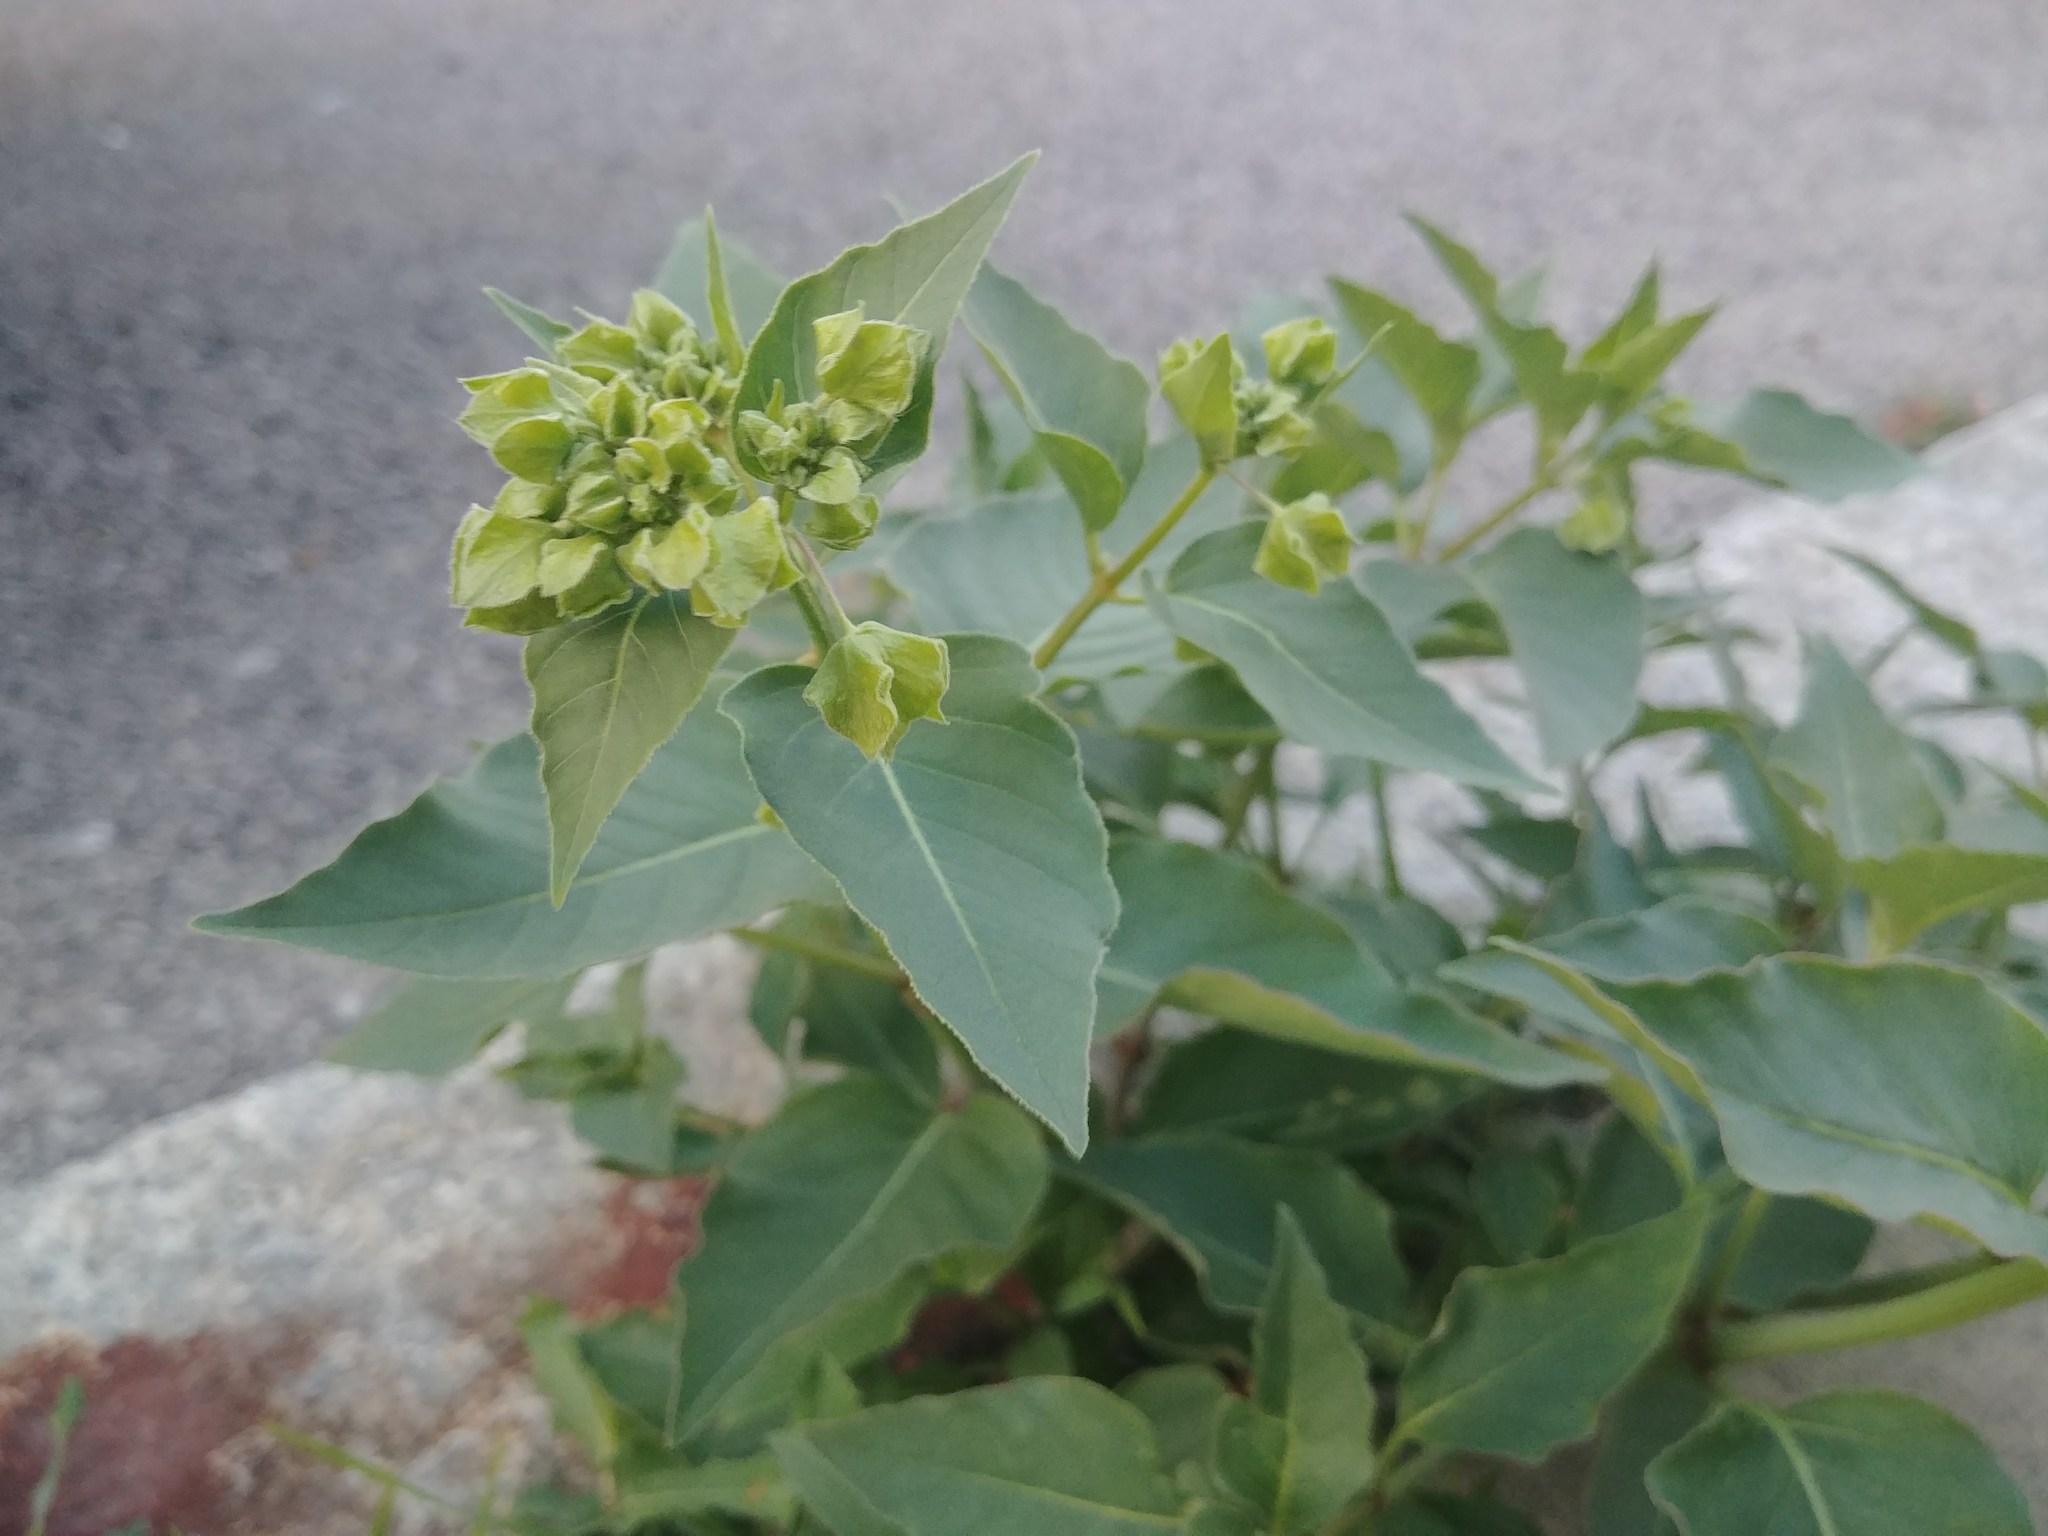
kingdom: Plantae
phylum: Tracheophyta
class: Magnoliopsida
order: Caryophyllales
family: Nyctaginaceae
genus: Mirabilis
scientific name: Mirabilis nyctaginea
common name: Umbrella wort
